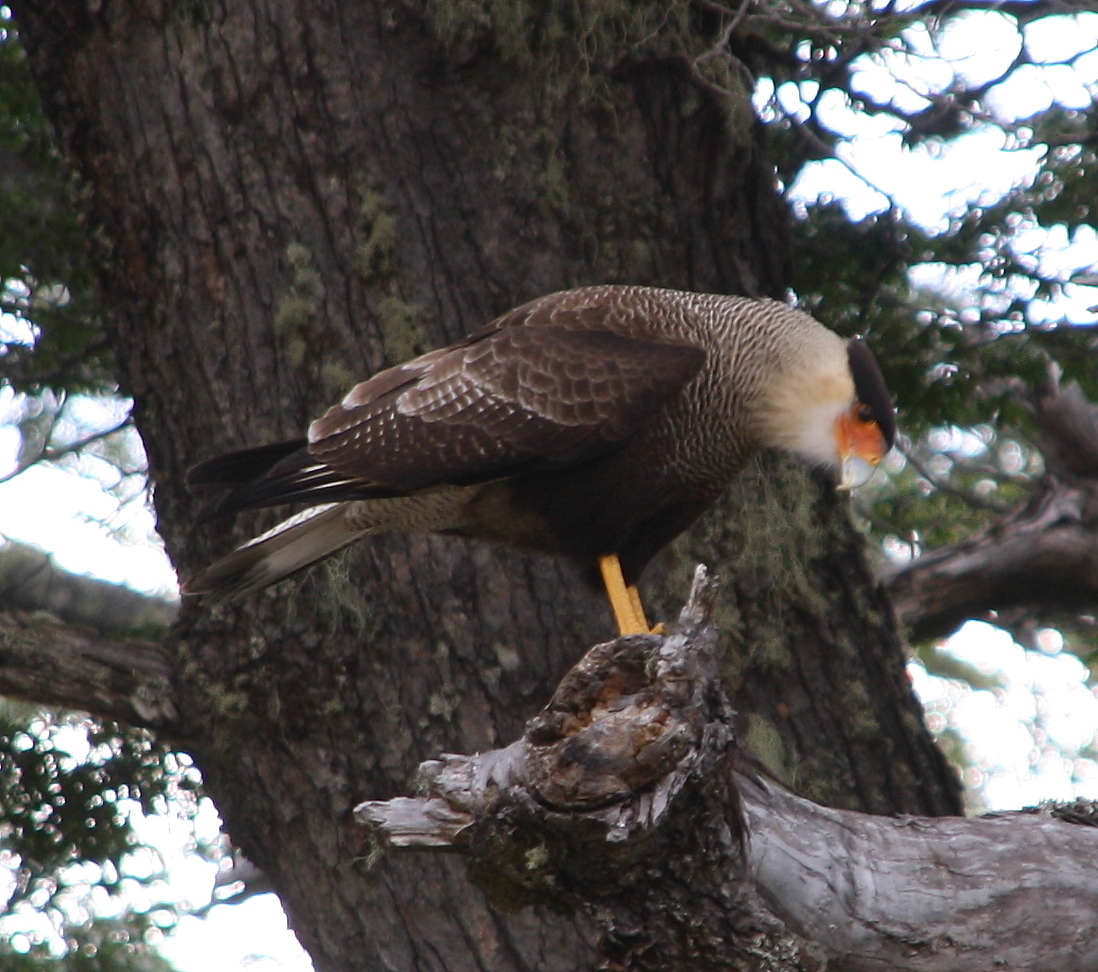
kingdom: Animalia
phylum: Chordata
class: Aves
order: Falconiformes
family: Falconidae
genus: Caracara
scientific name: Caracara plancus
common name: Southern caracara
